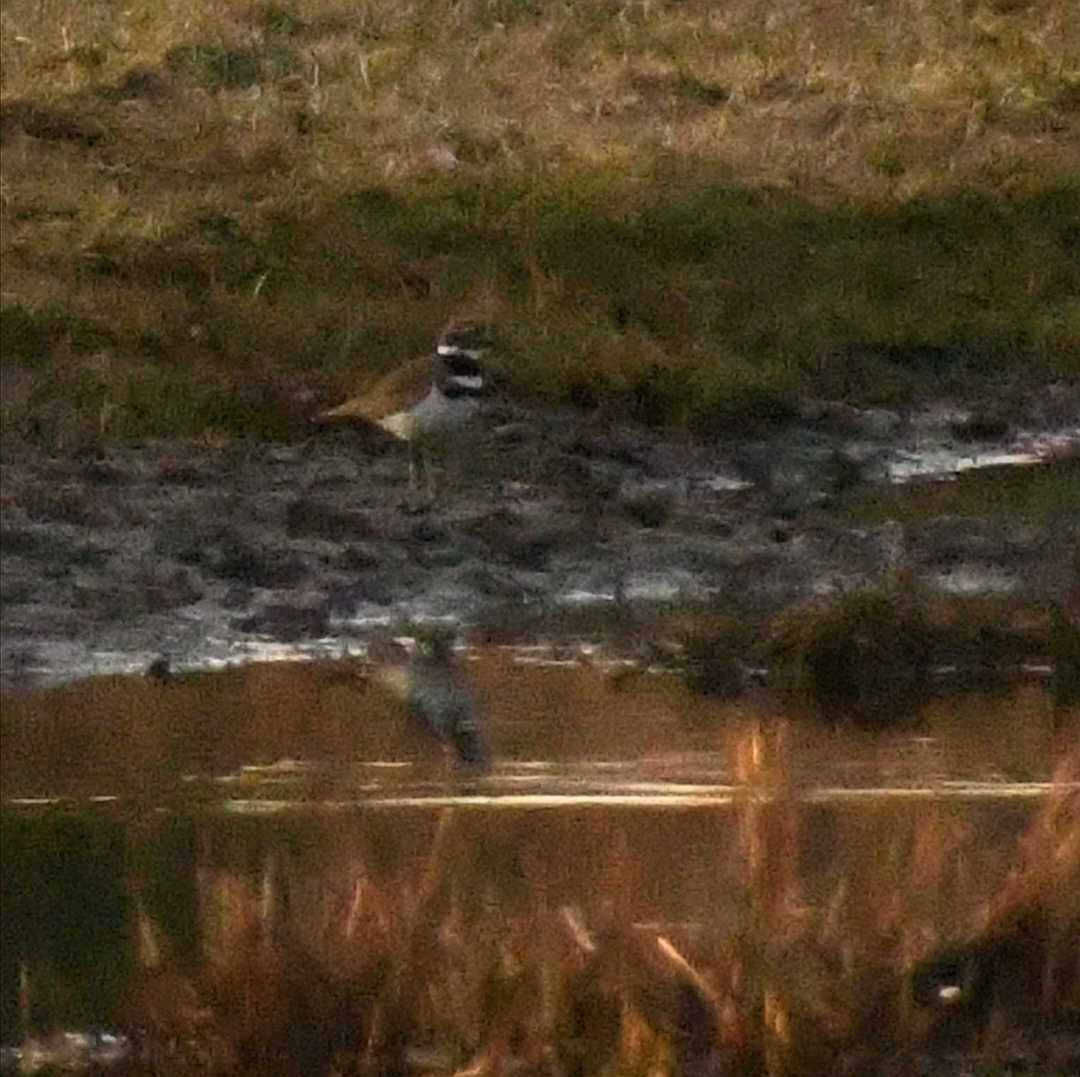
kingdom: Animalia
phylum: Chordata
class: Aves
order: Charadriiformes
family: Charadriidae
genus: Charadrius
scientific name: Charadrius vociferus
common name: Killdeer
